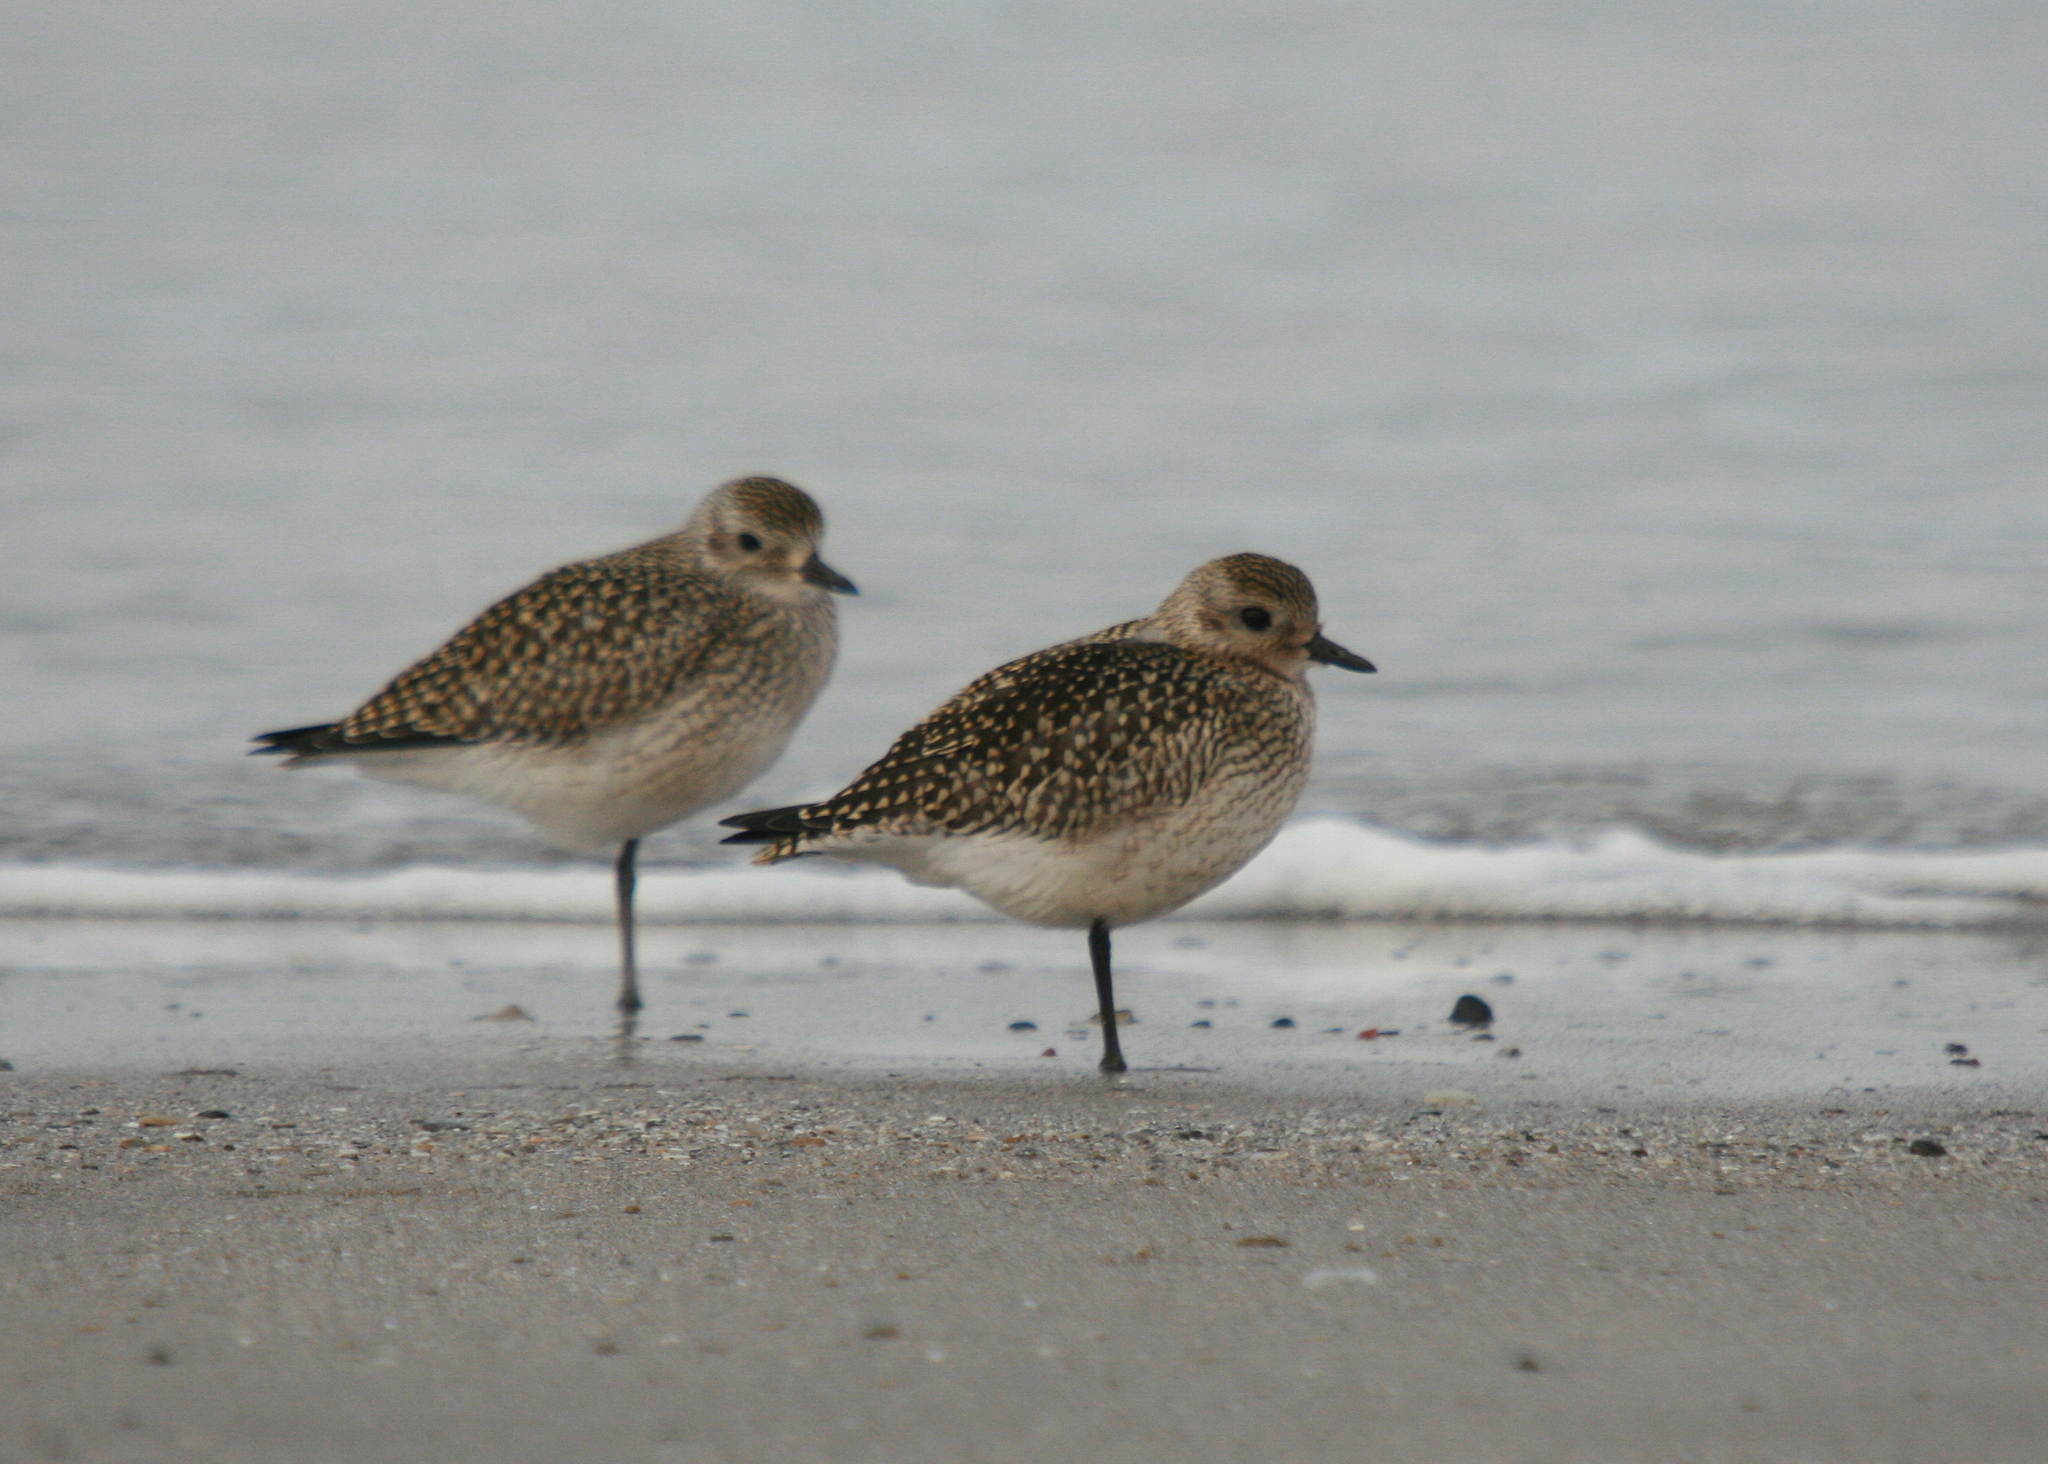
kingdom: Animalia
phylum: Chordata
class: Aves
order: Charadriiformes
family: Charadriidae
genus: Pluvialis
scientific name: Pluvialis apricaria
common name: European golden plover
